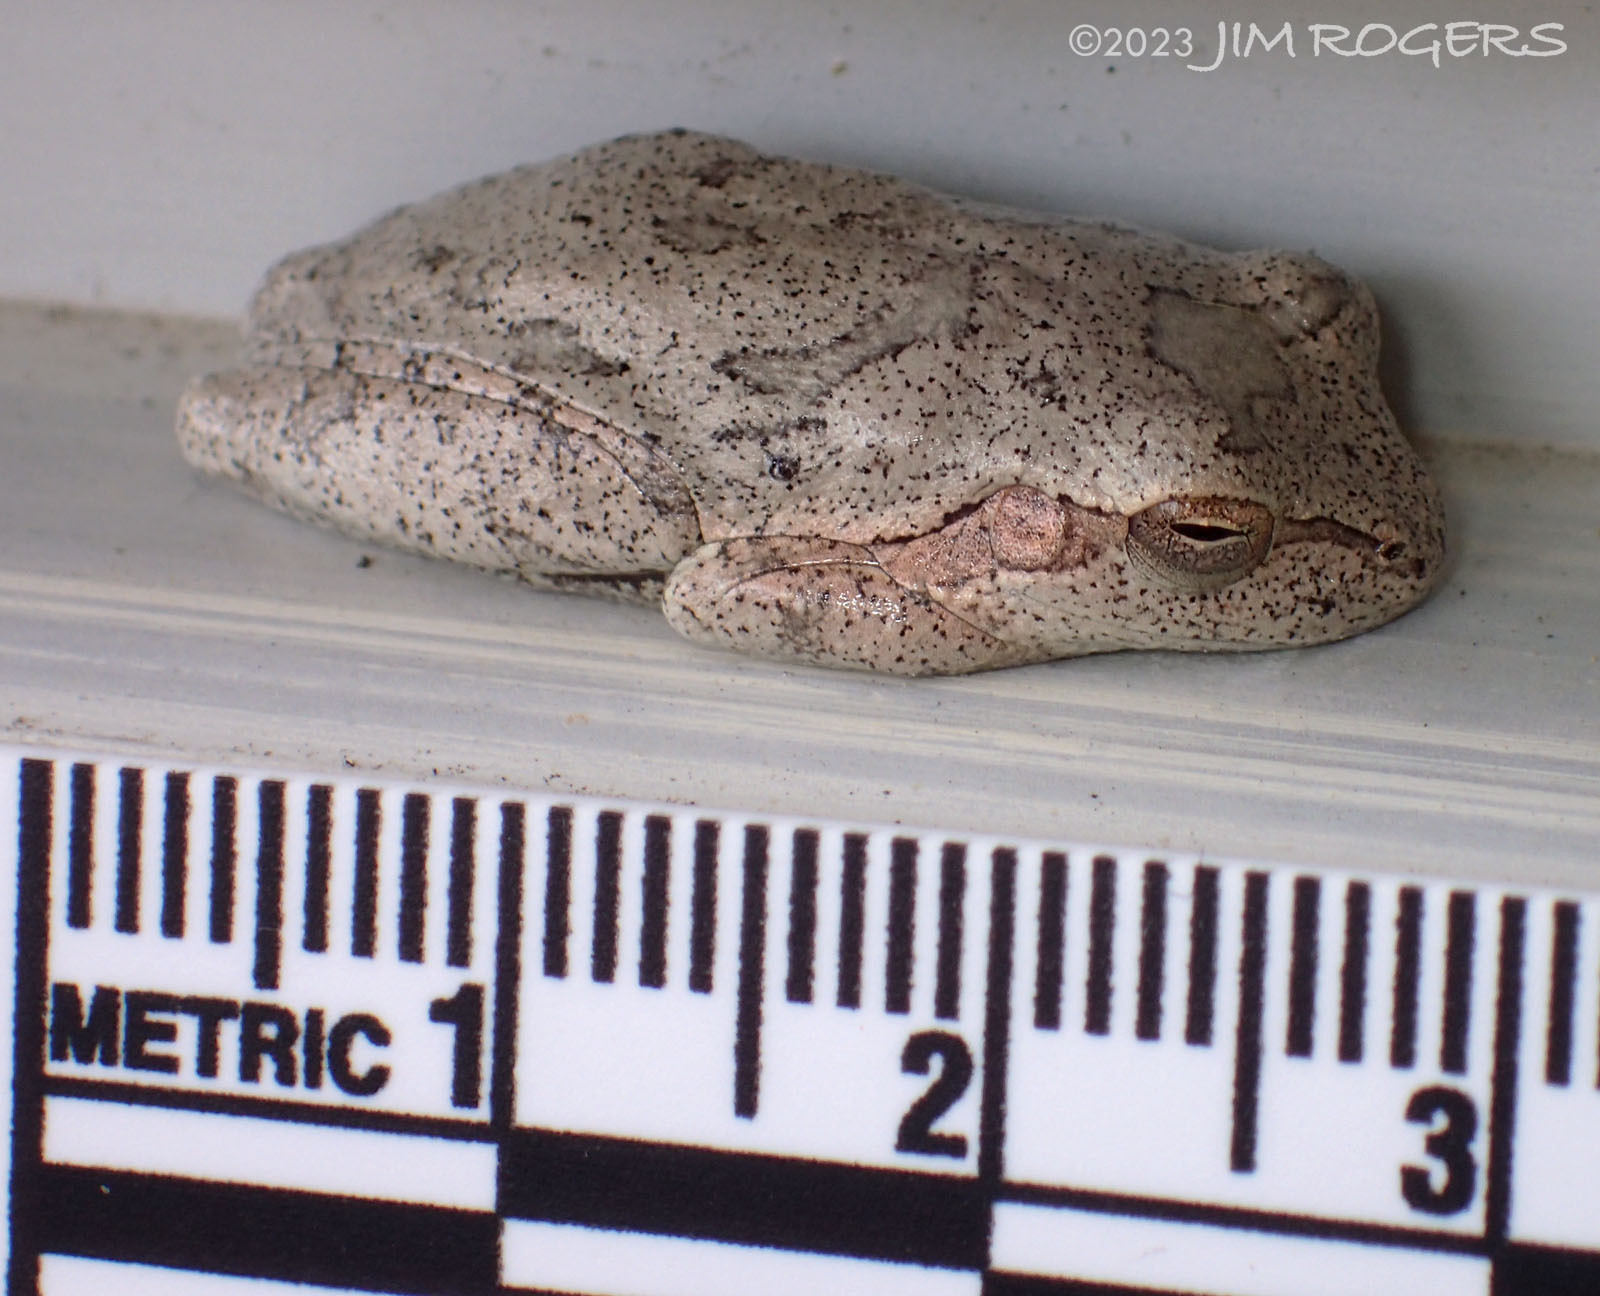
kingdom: Animalia
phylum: Chordata
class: Amphibia
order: Anura
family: Hylidae
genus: Hyla
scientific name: Hyla femoralis
